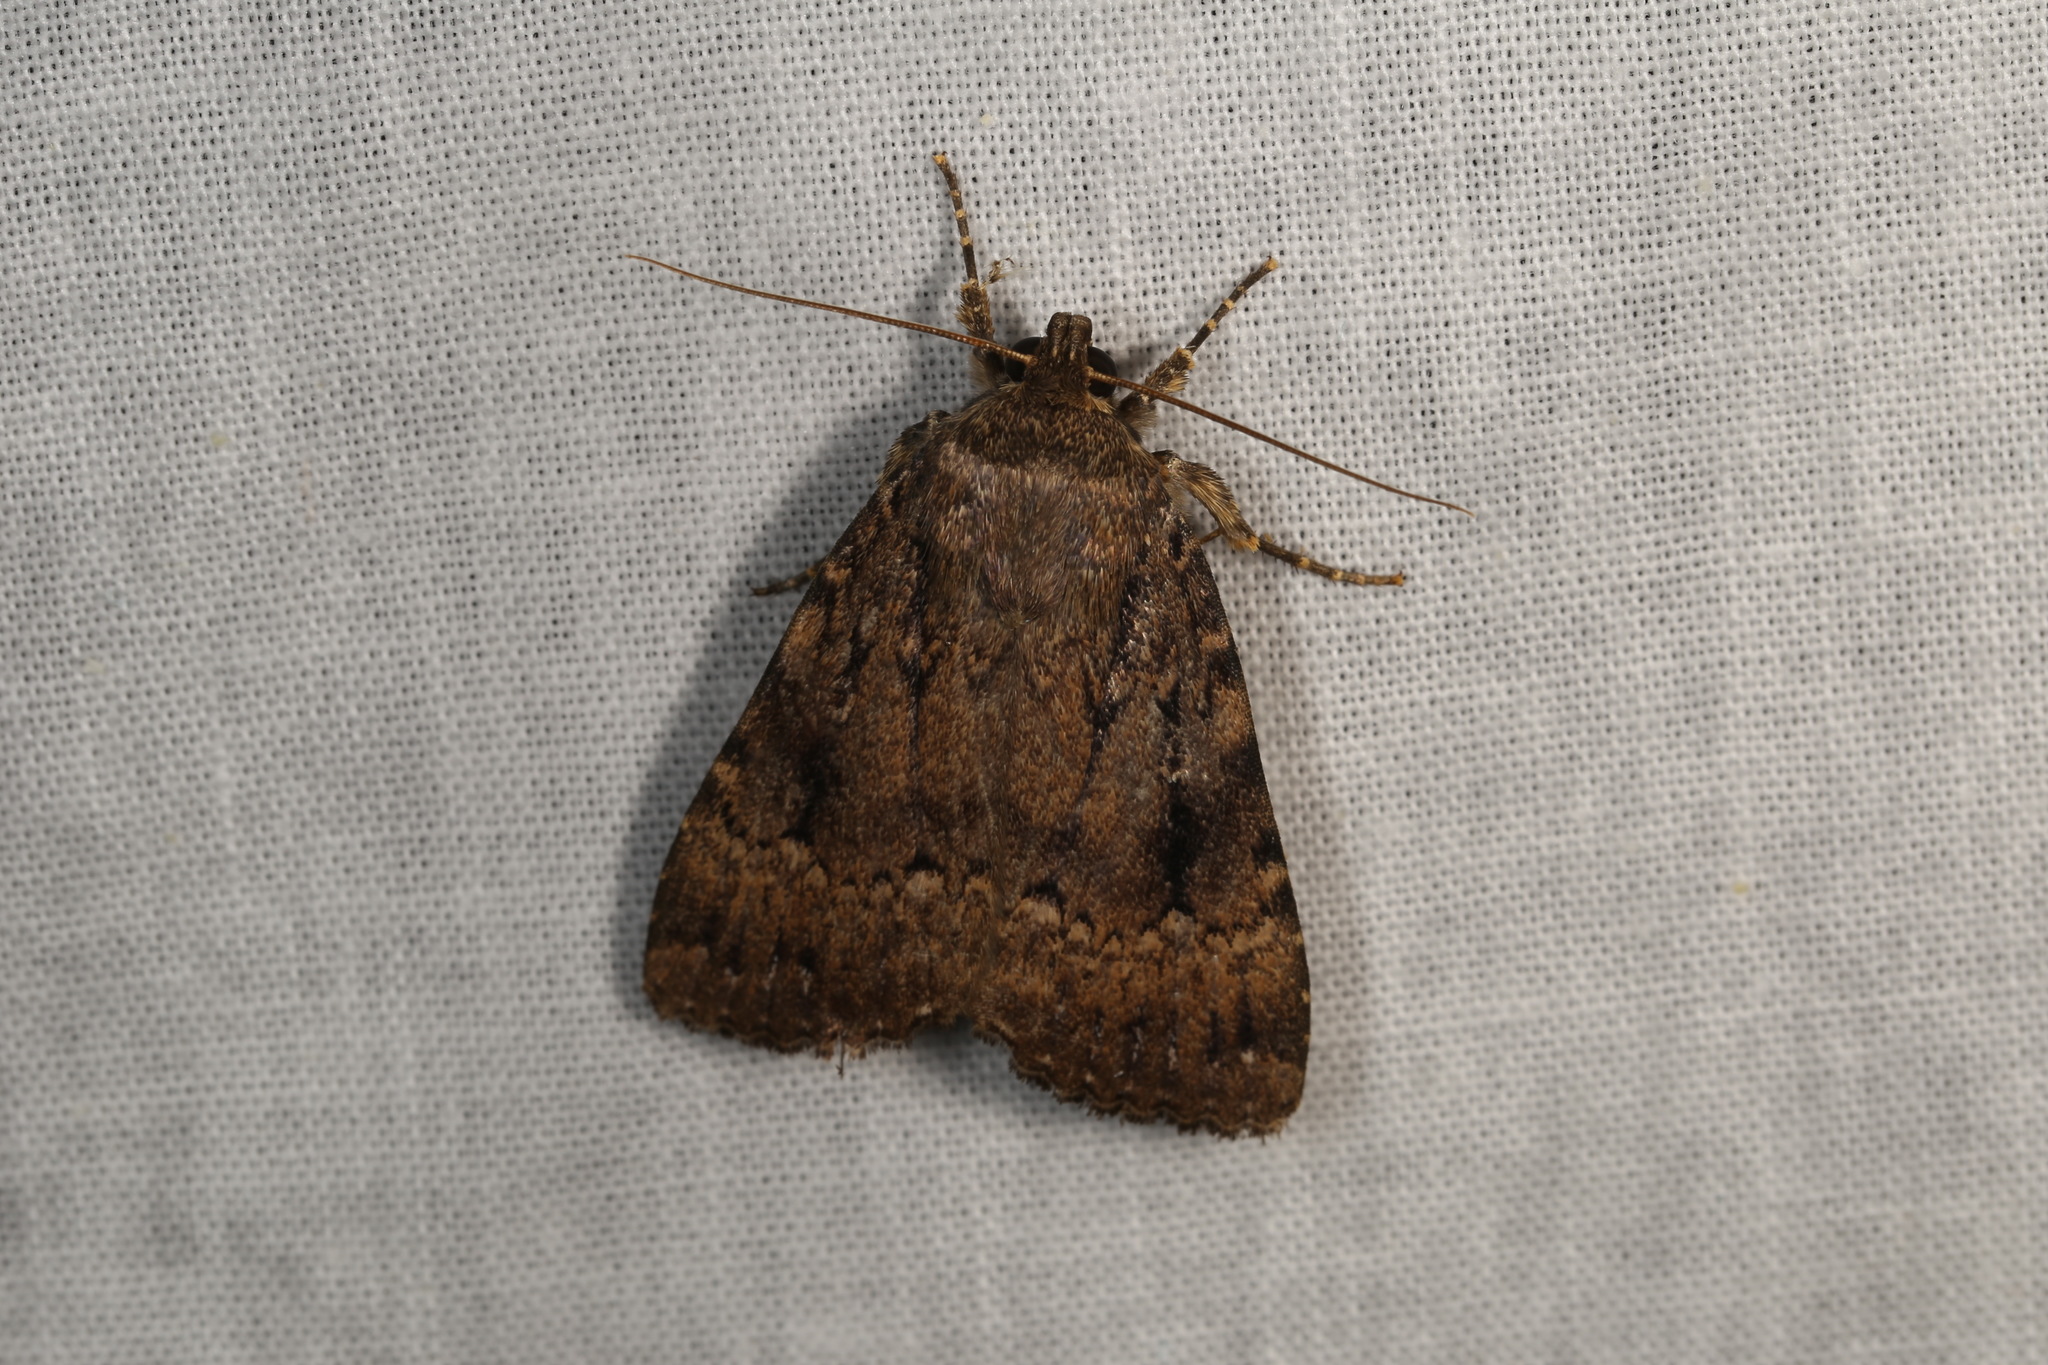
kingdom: Animalia
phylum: Arthropoda
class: Insecta
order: Lepidoptera
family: Noctuidae
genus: Amphipyra
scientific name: Amphipyra berbera
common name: Svensson's copper underwing
